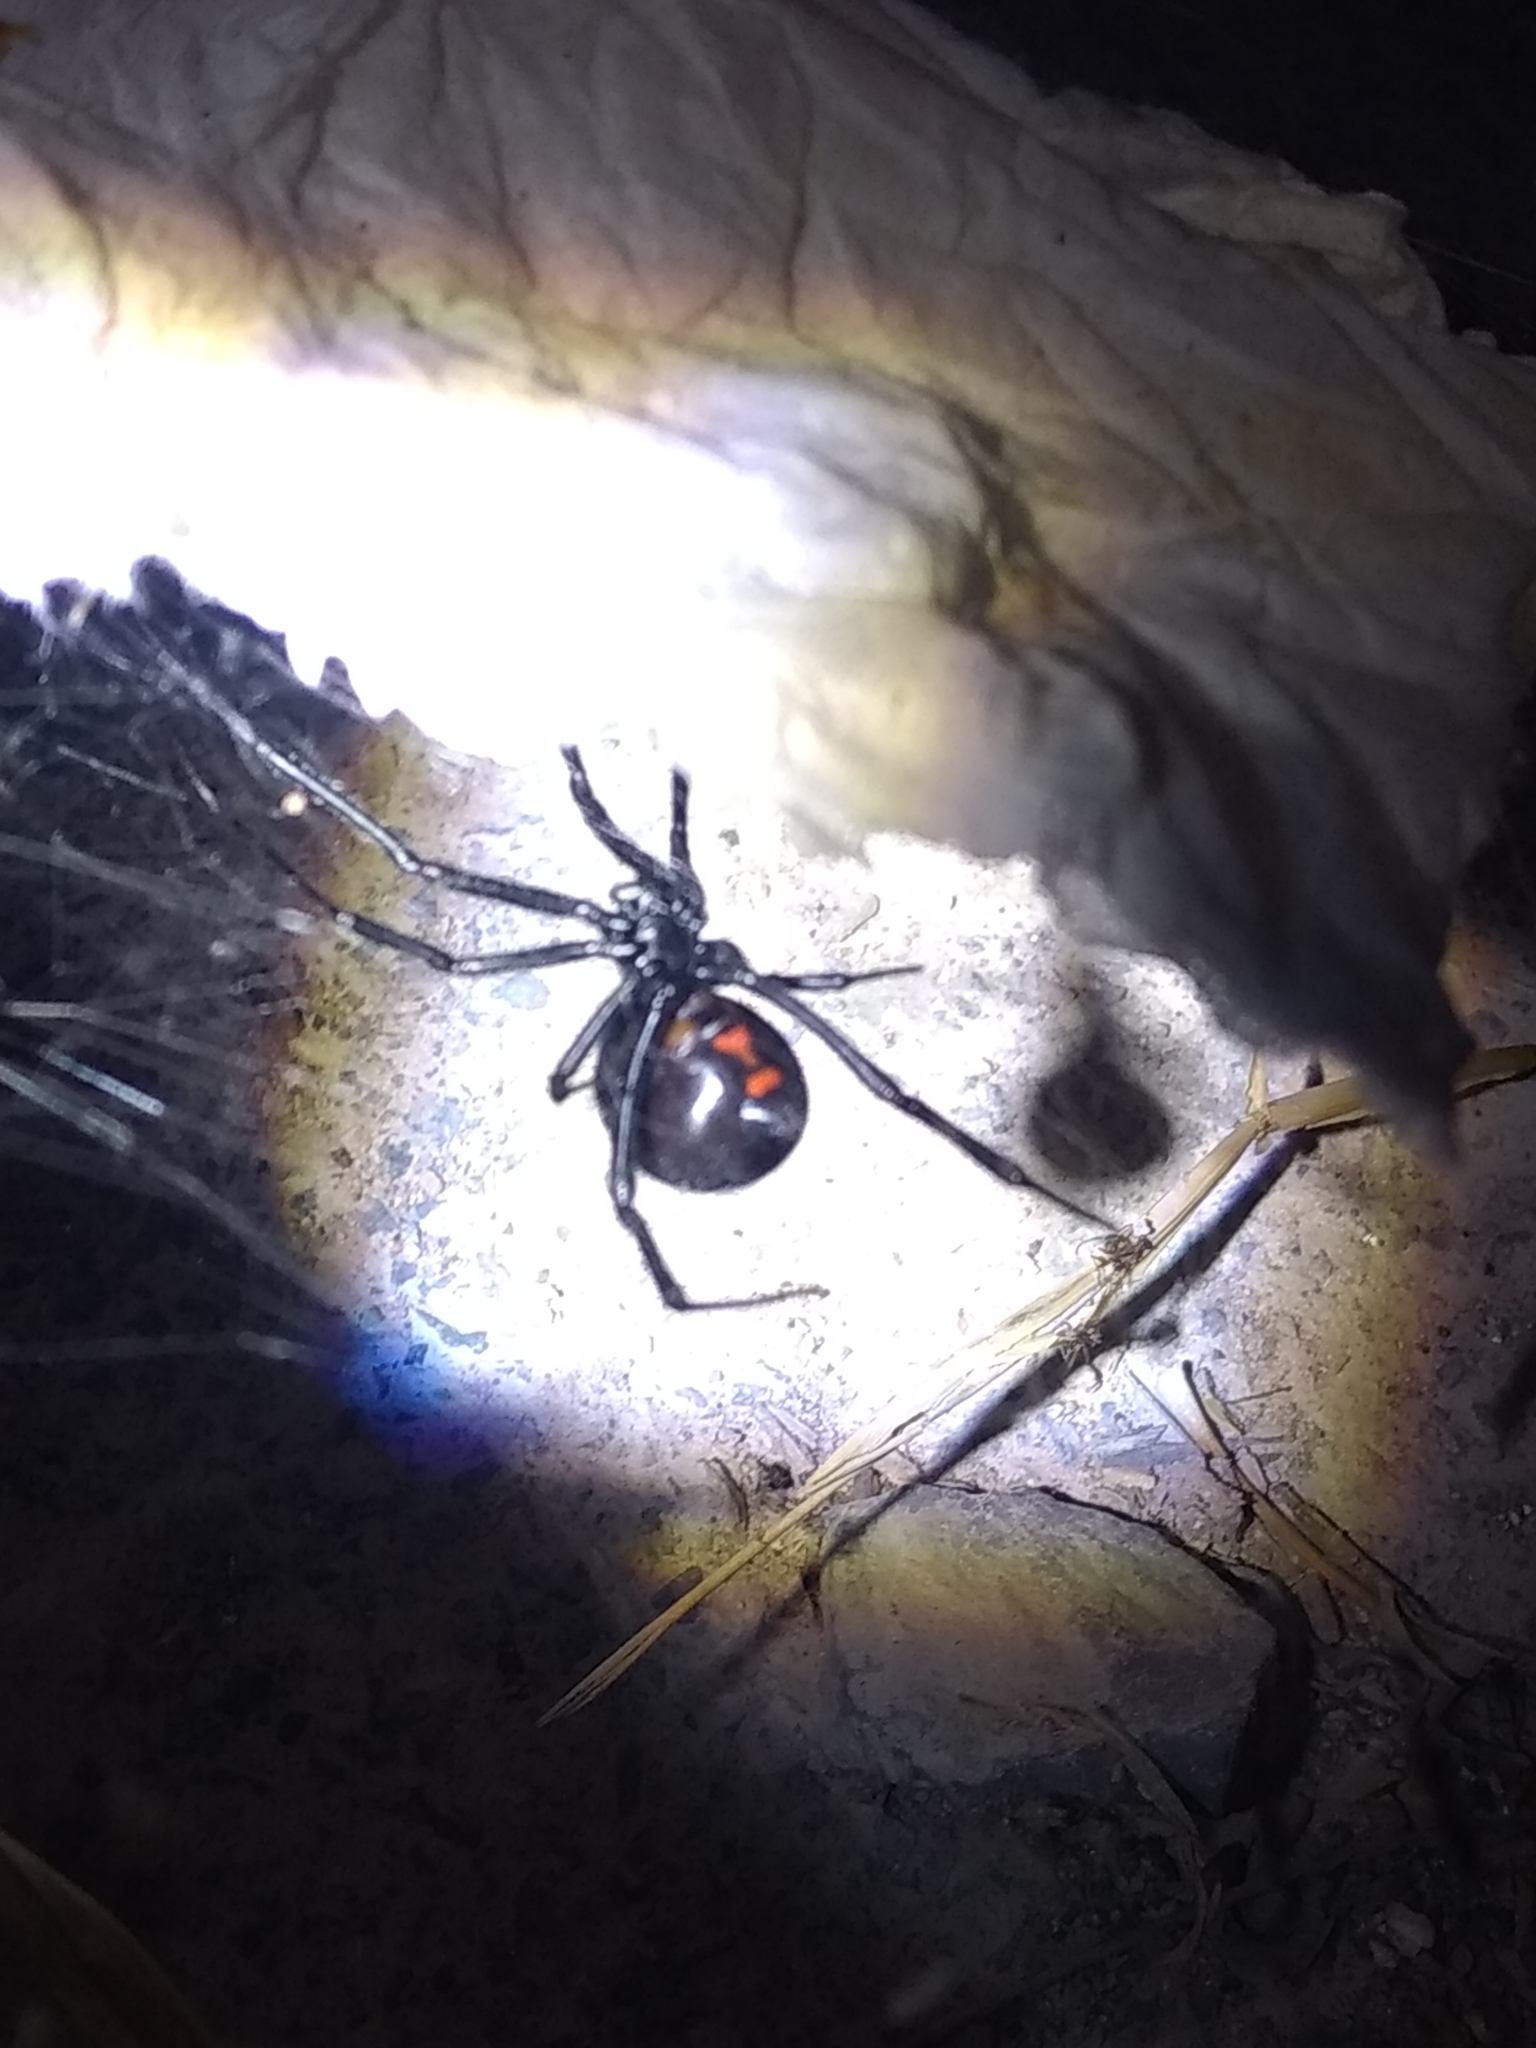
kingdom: Animalia
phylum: Arthropoda
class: Arachnida
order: Araneae
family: Theridiidae
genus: Latrodectus
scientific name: Latrodectus hesperus
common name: Western black widow
